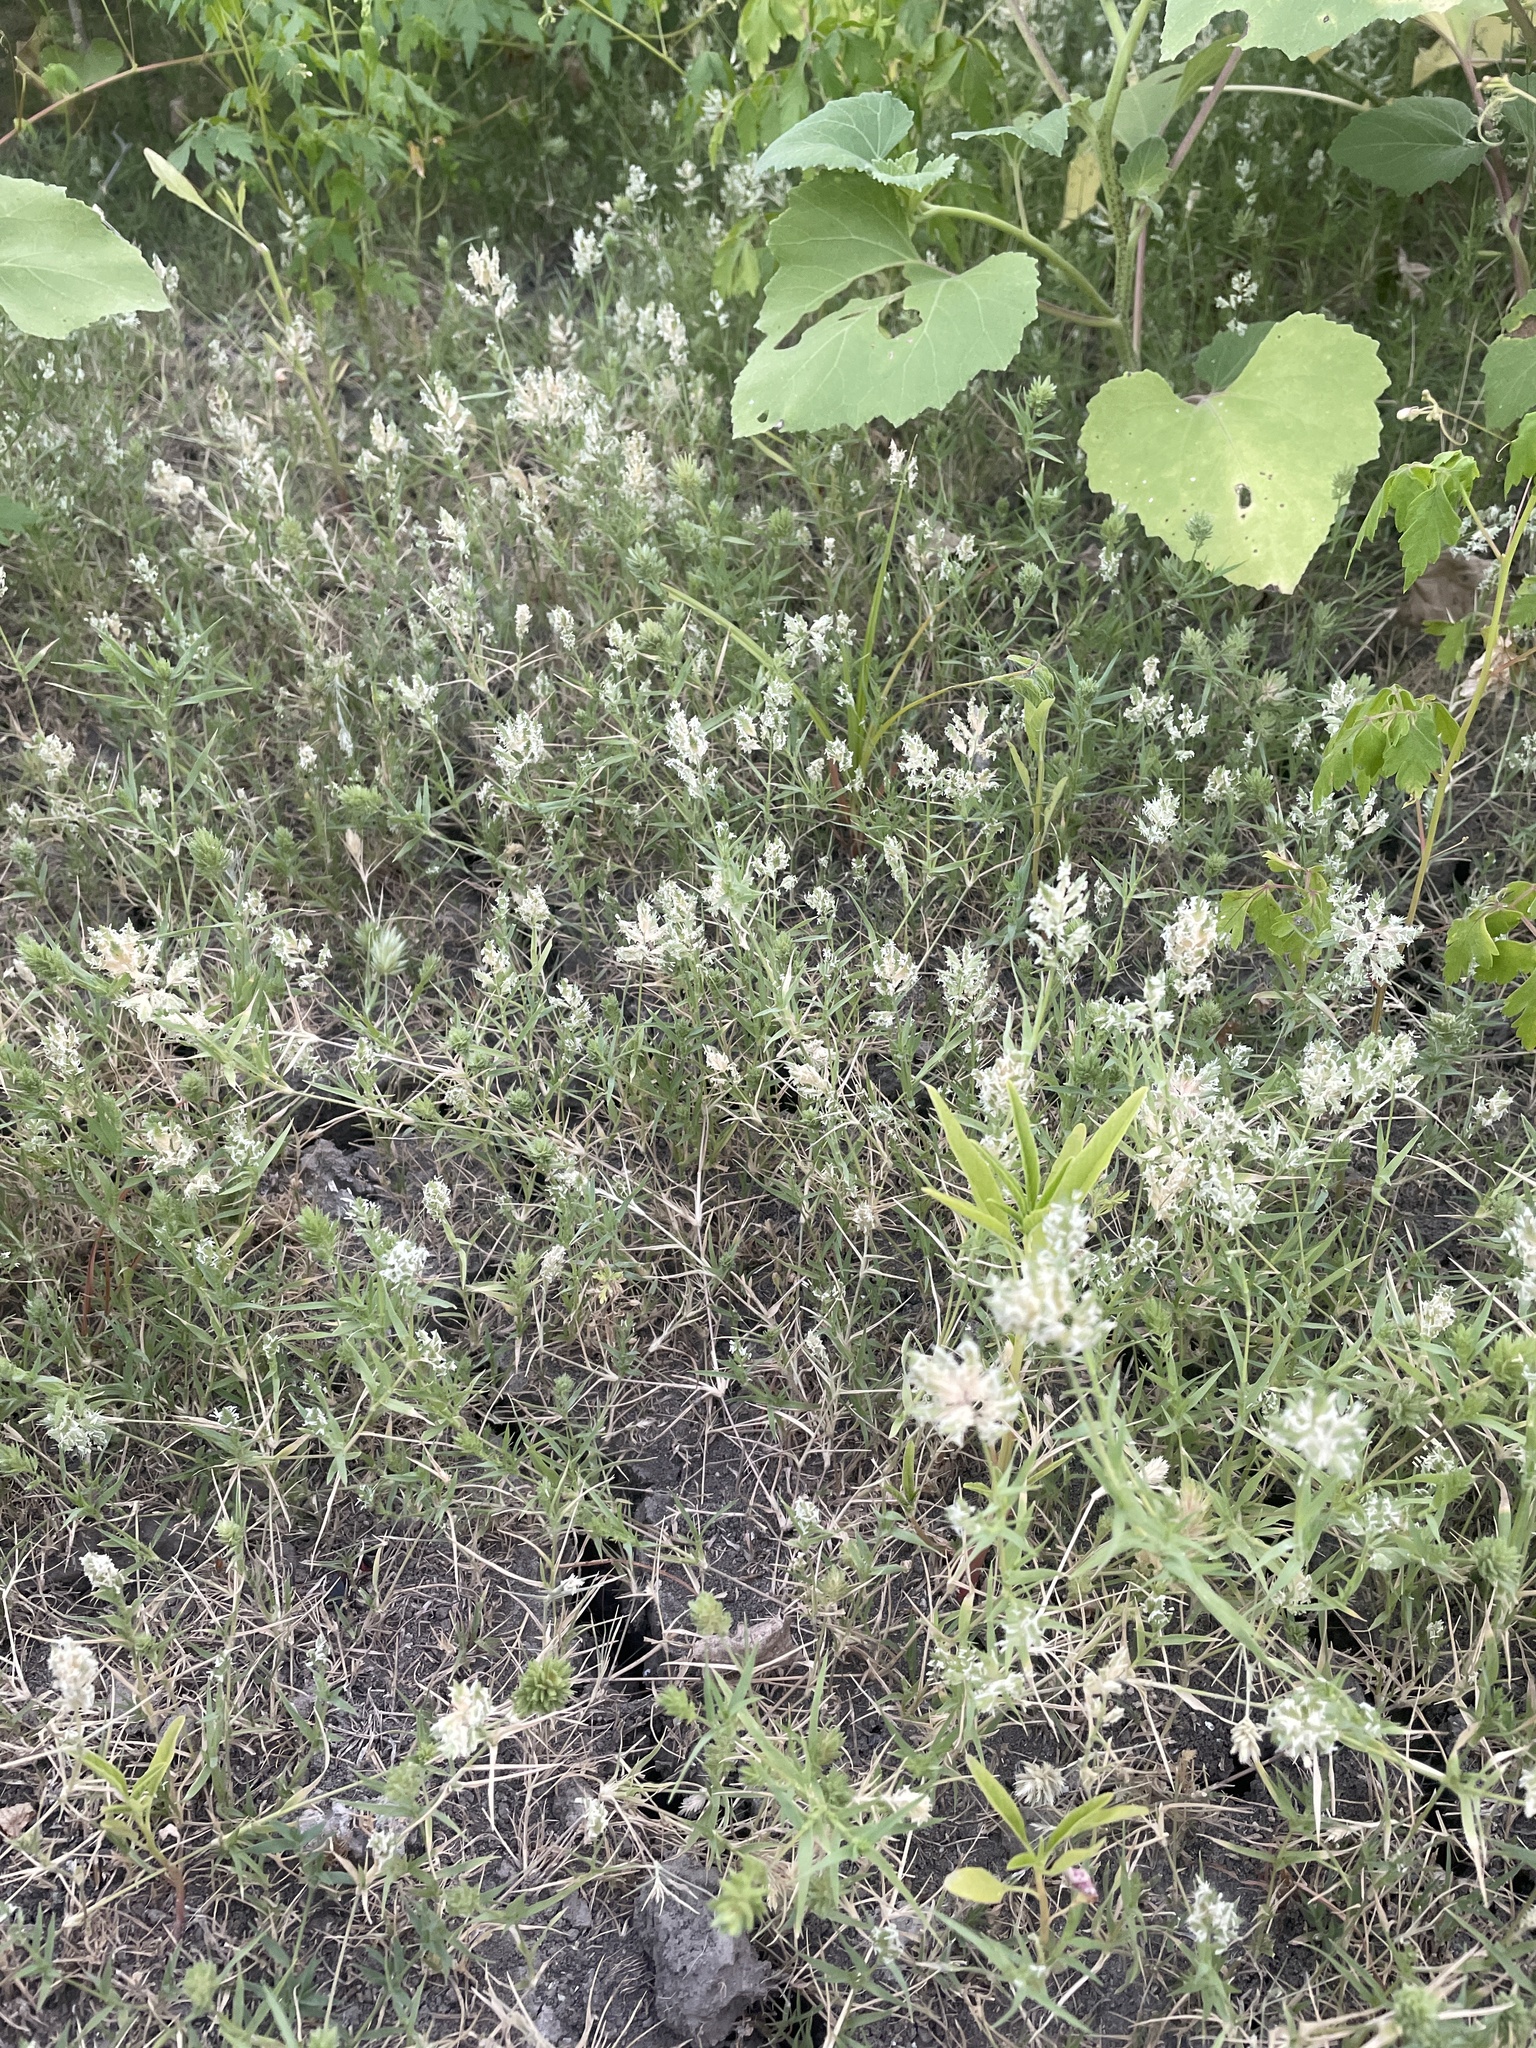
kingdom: Plantae
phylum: Tracheophyta
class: Liliopsida
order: Poales
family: Poaceae
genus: Eragrostis
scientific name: Eragrostis reptans
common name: Creeping love grass
